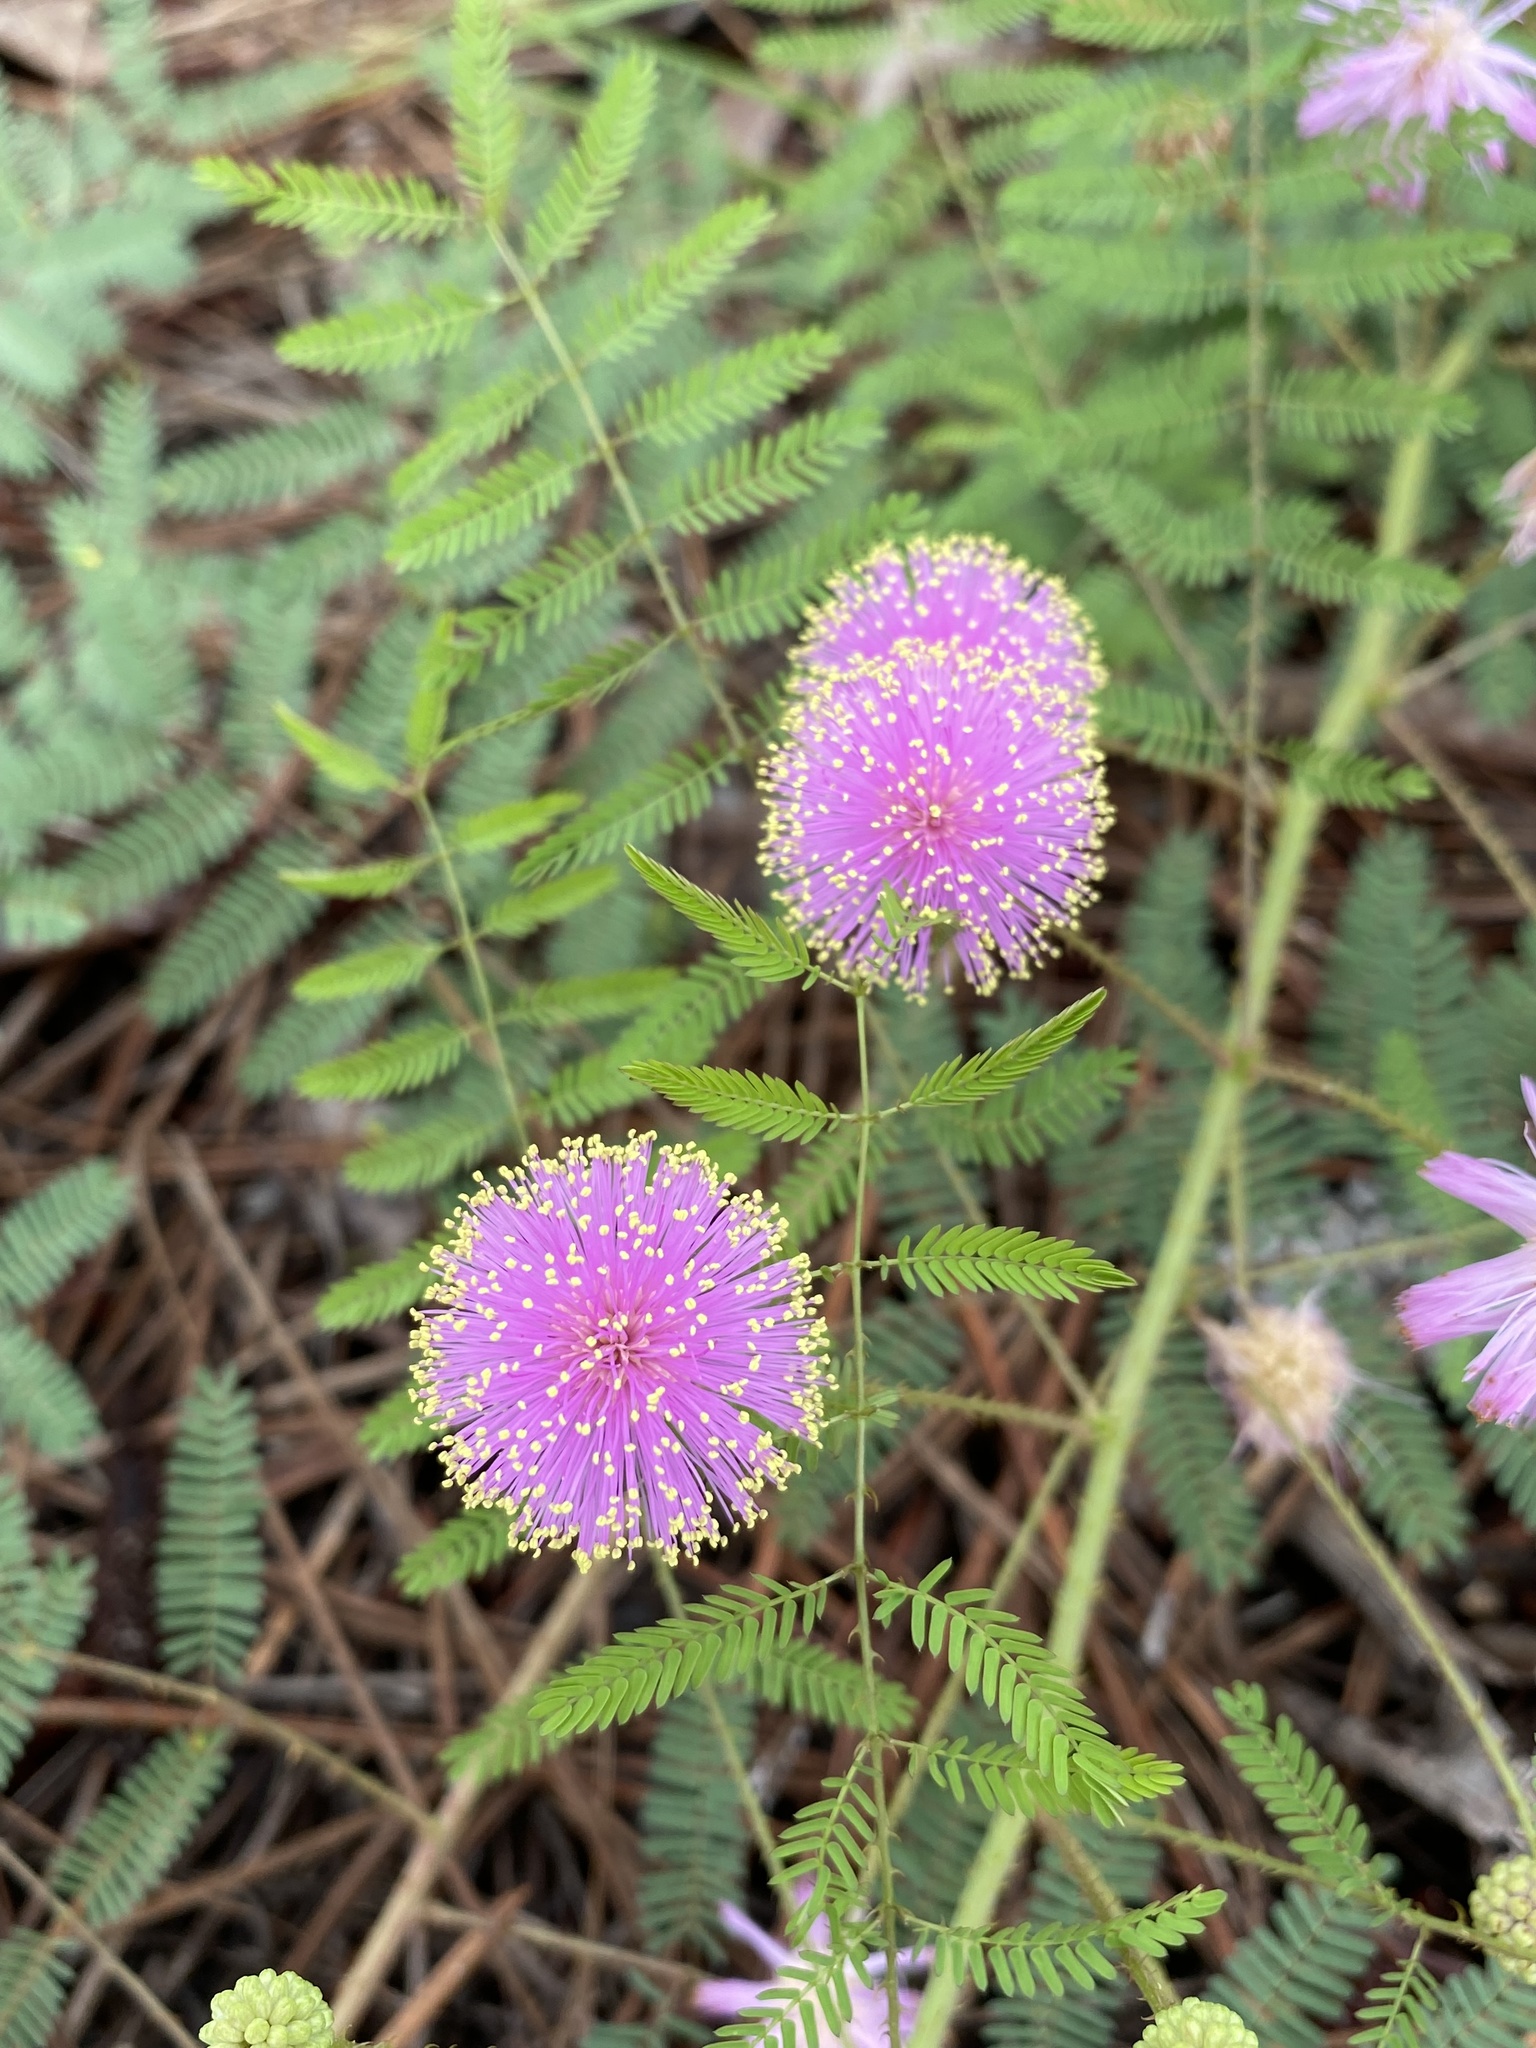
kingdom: Plantae
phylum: Tracheophyta
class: Magnoliopsida
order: Fabales
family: Fabaceae
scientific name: Fabaceae
